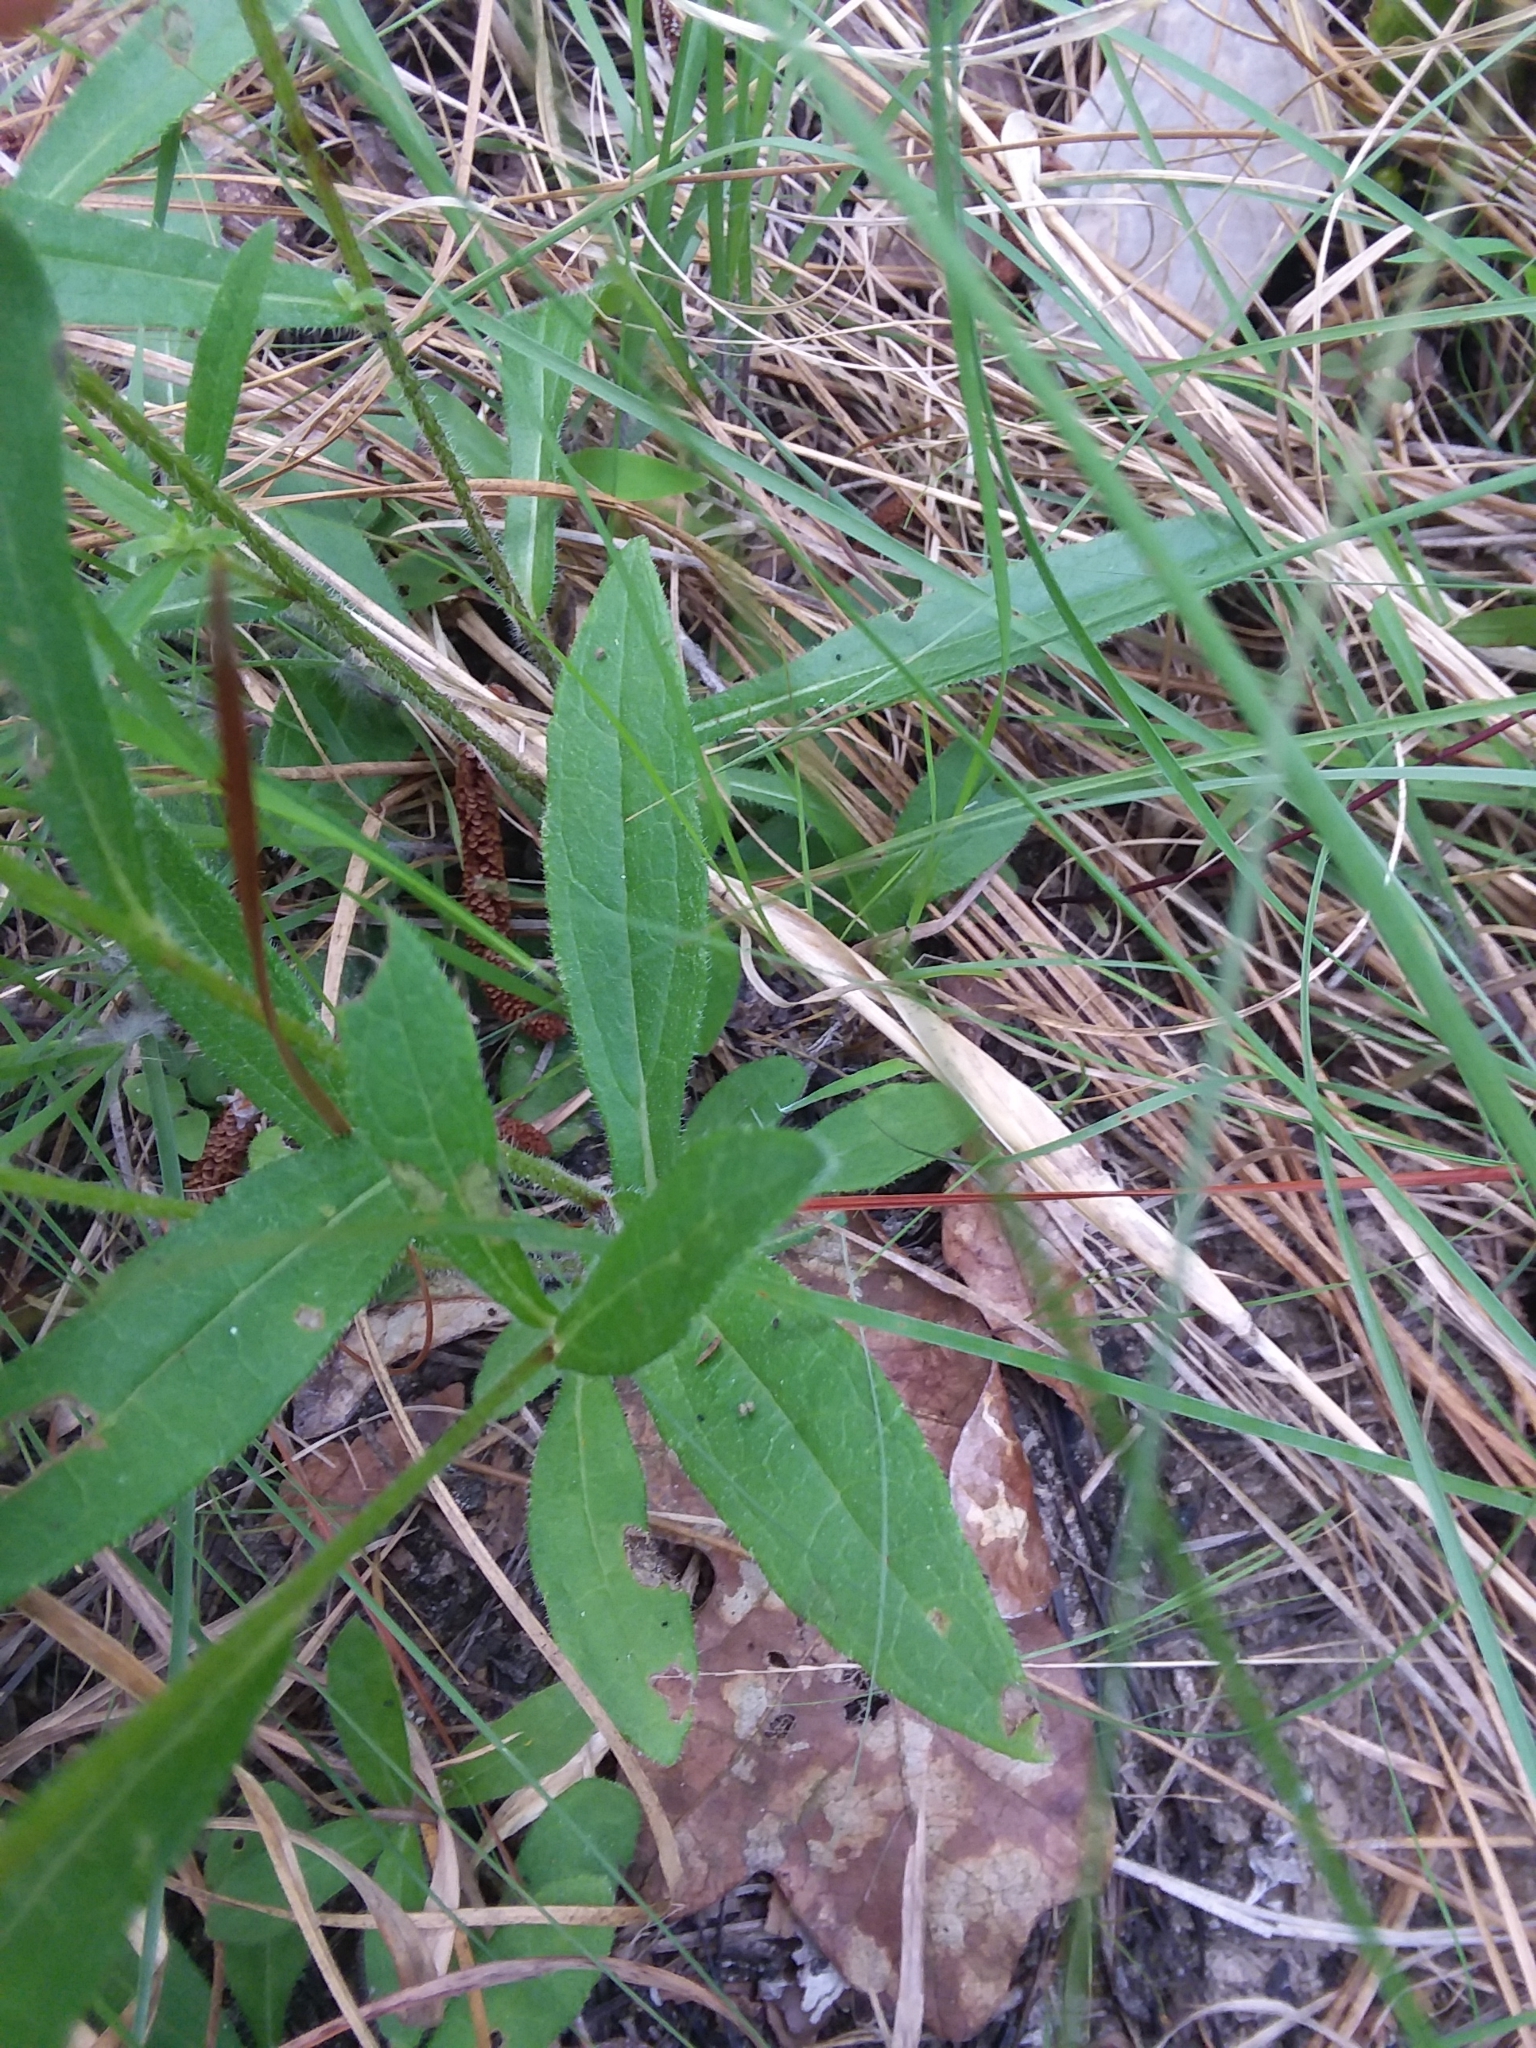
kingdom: Plantae
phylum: Tracheophyta
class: Magnoliopsida
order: Asterales
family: Asteraceae
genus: Rudbeckia
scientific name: Rudbeckia hirta
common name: Black-eyed-susan
